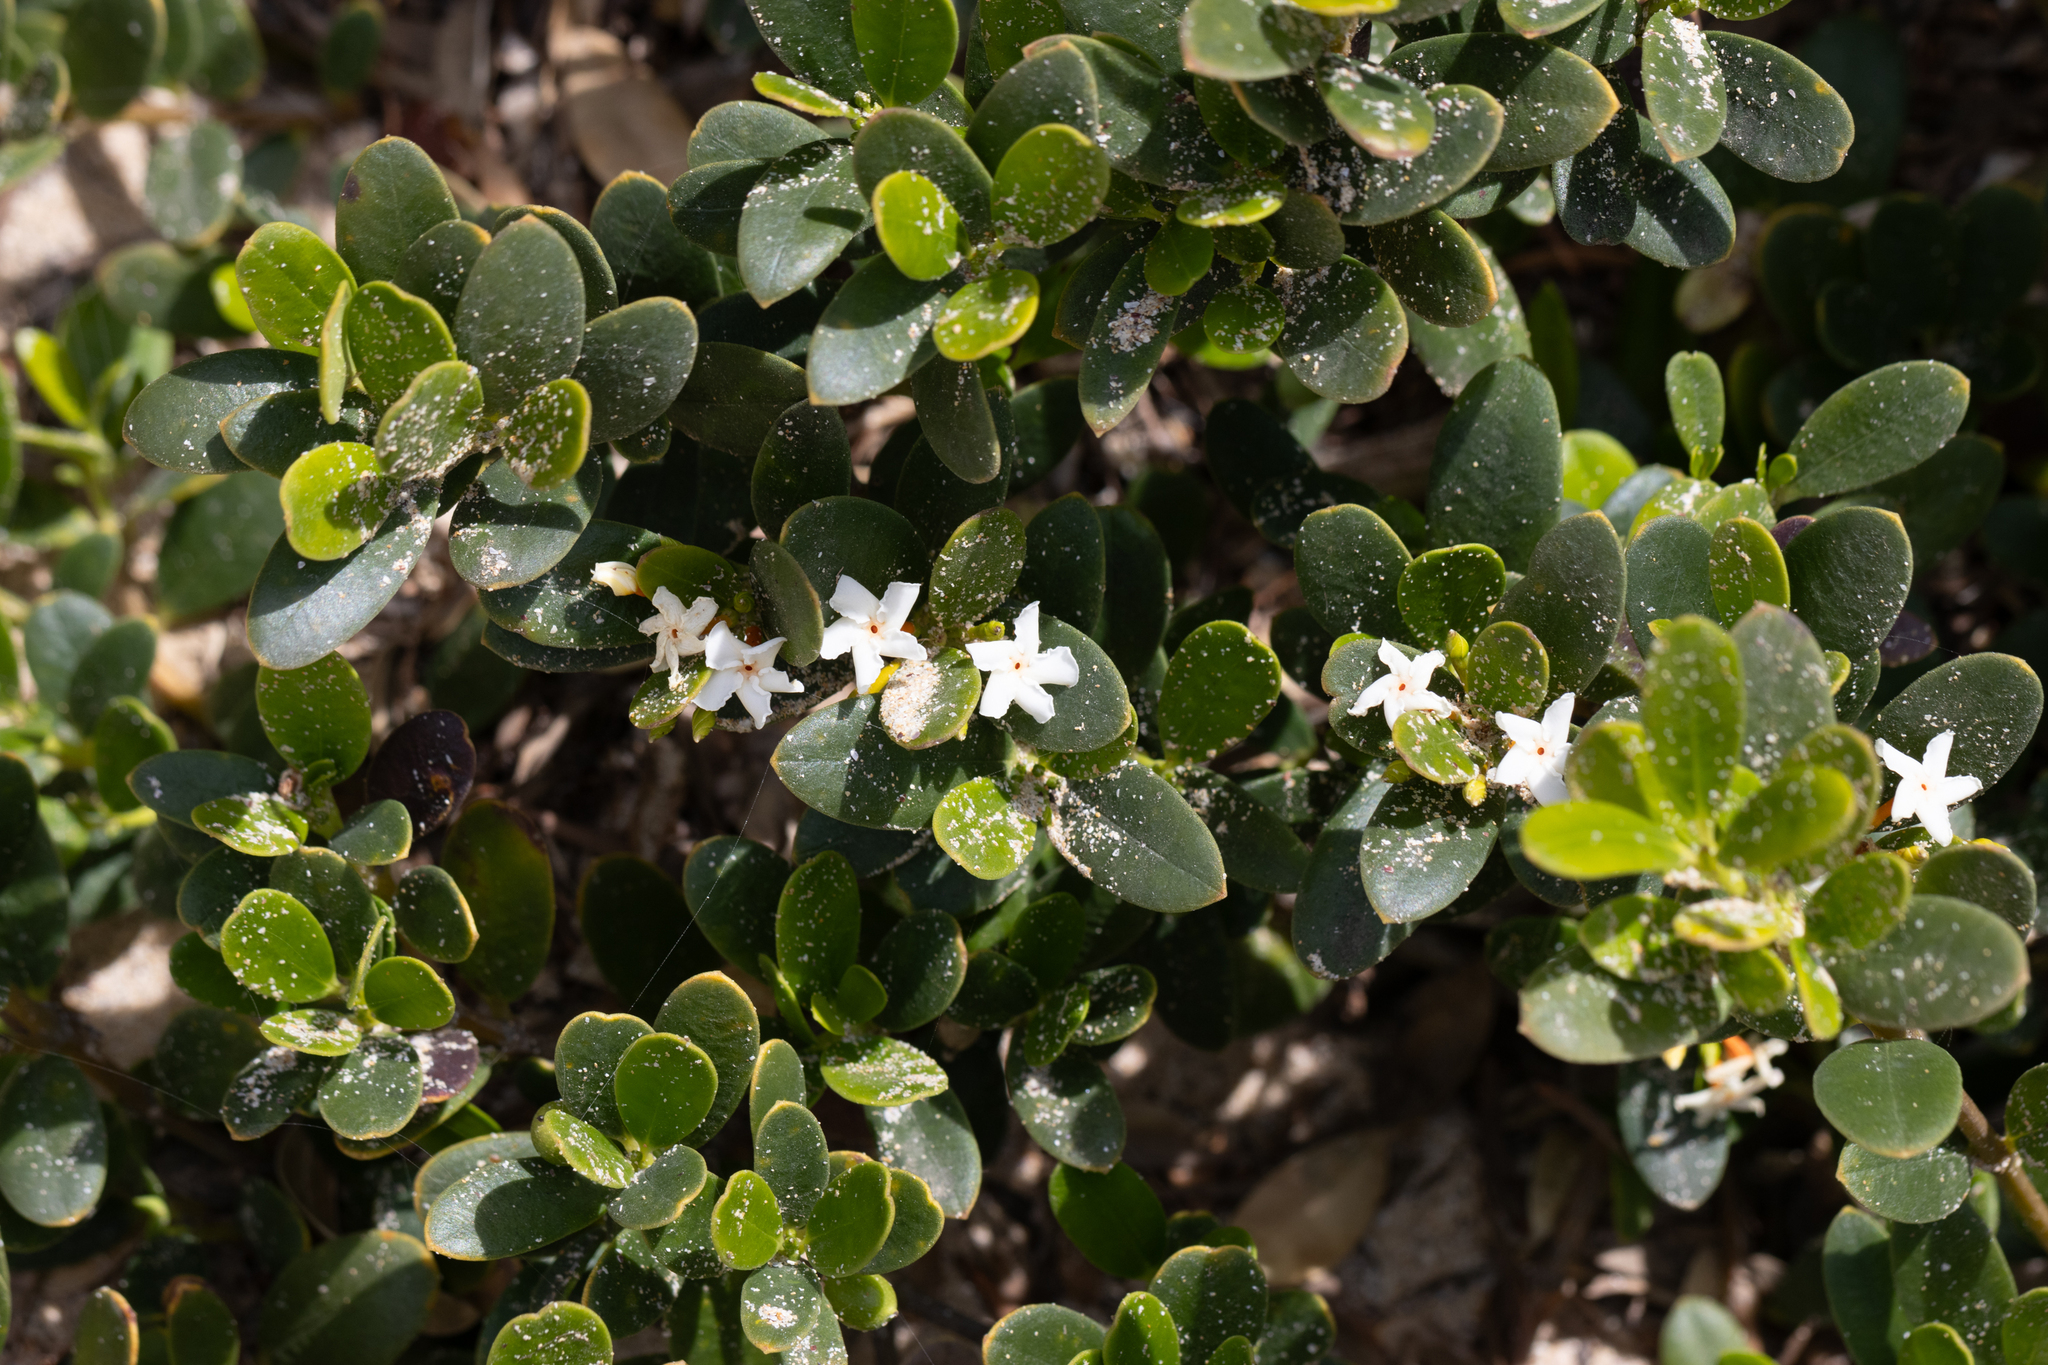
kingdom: Plantae
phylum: Tracheophyta
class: Magnoliopsida
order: Gentianales
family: Apocynaceae
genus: Alyxia
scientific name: Alyxia buxifolia
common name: Dysentery-bush
